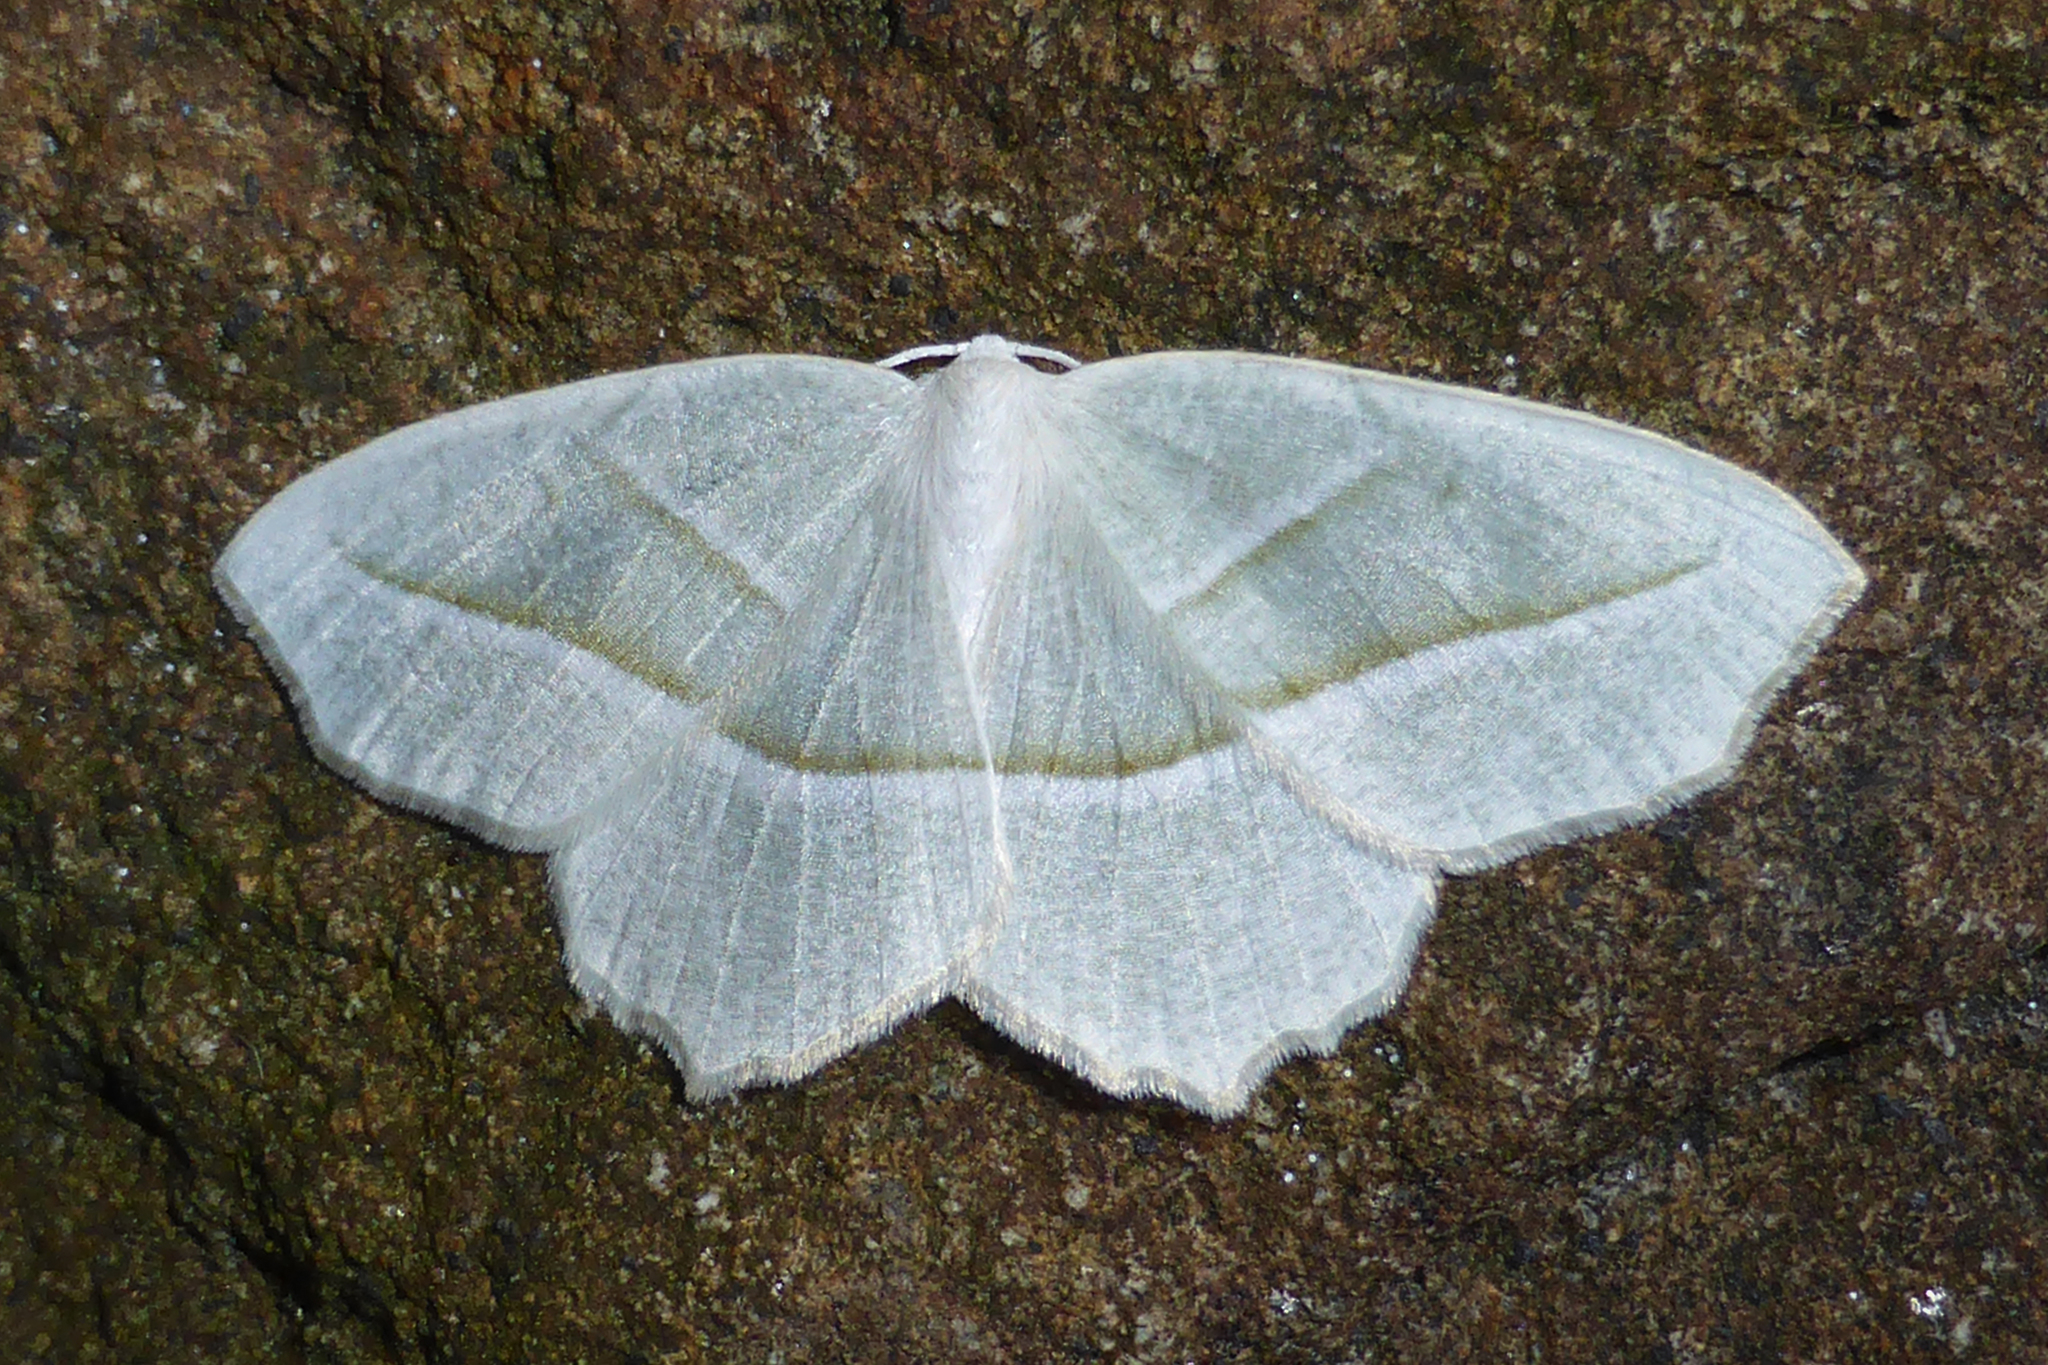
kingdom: Animalia
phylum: Arthropoda
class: Insecta
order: Lepidoptera
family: Geometridae
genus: Campaea
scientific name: Campaea perlata
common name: Fringed looper
